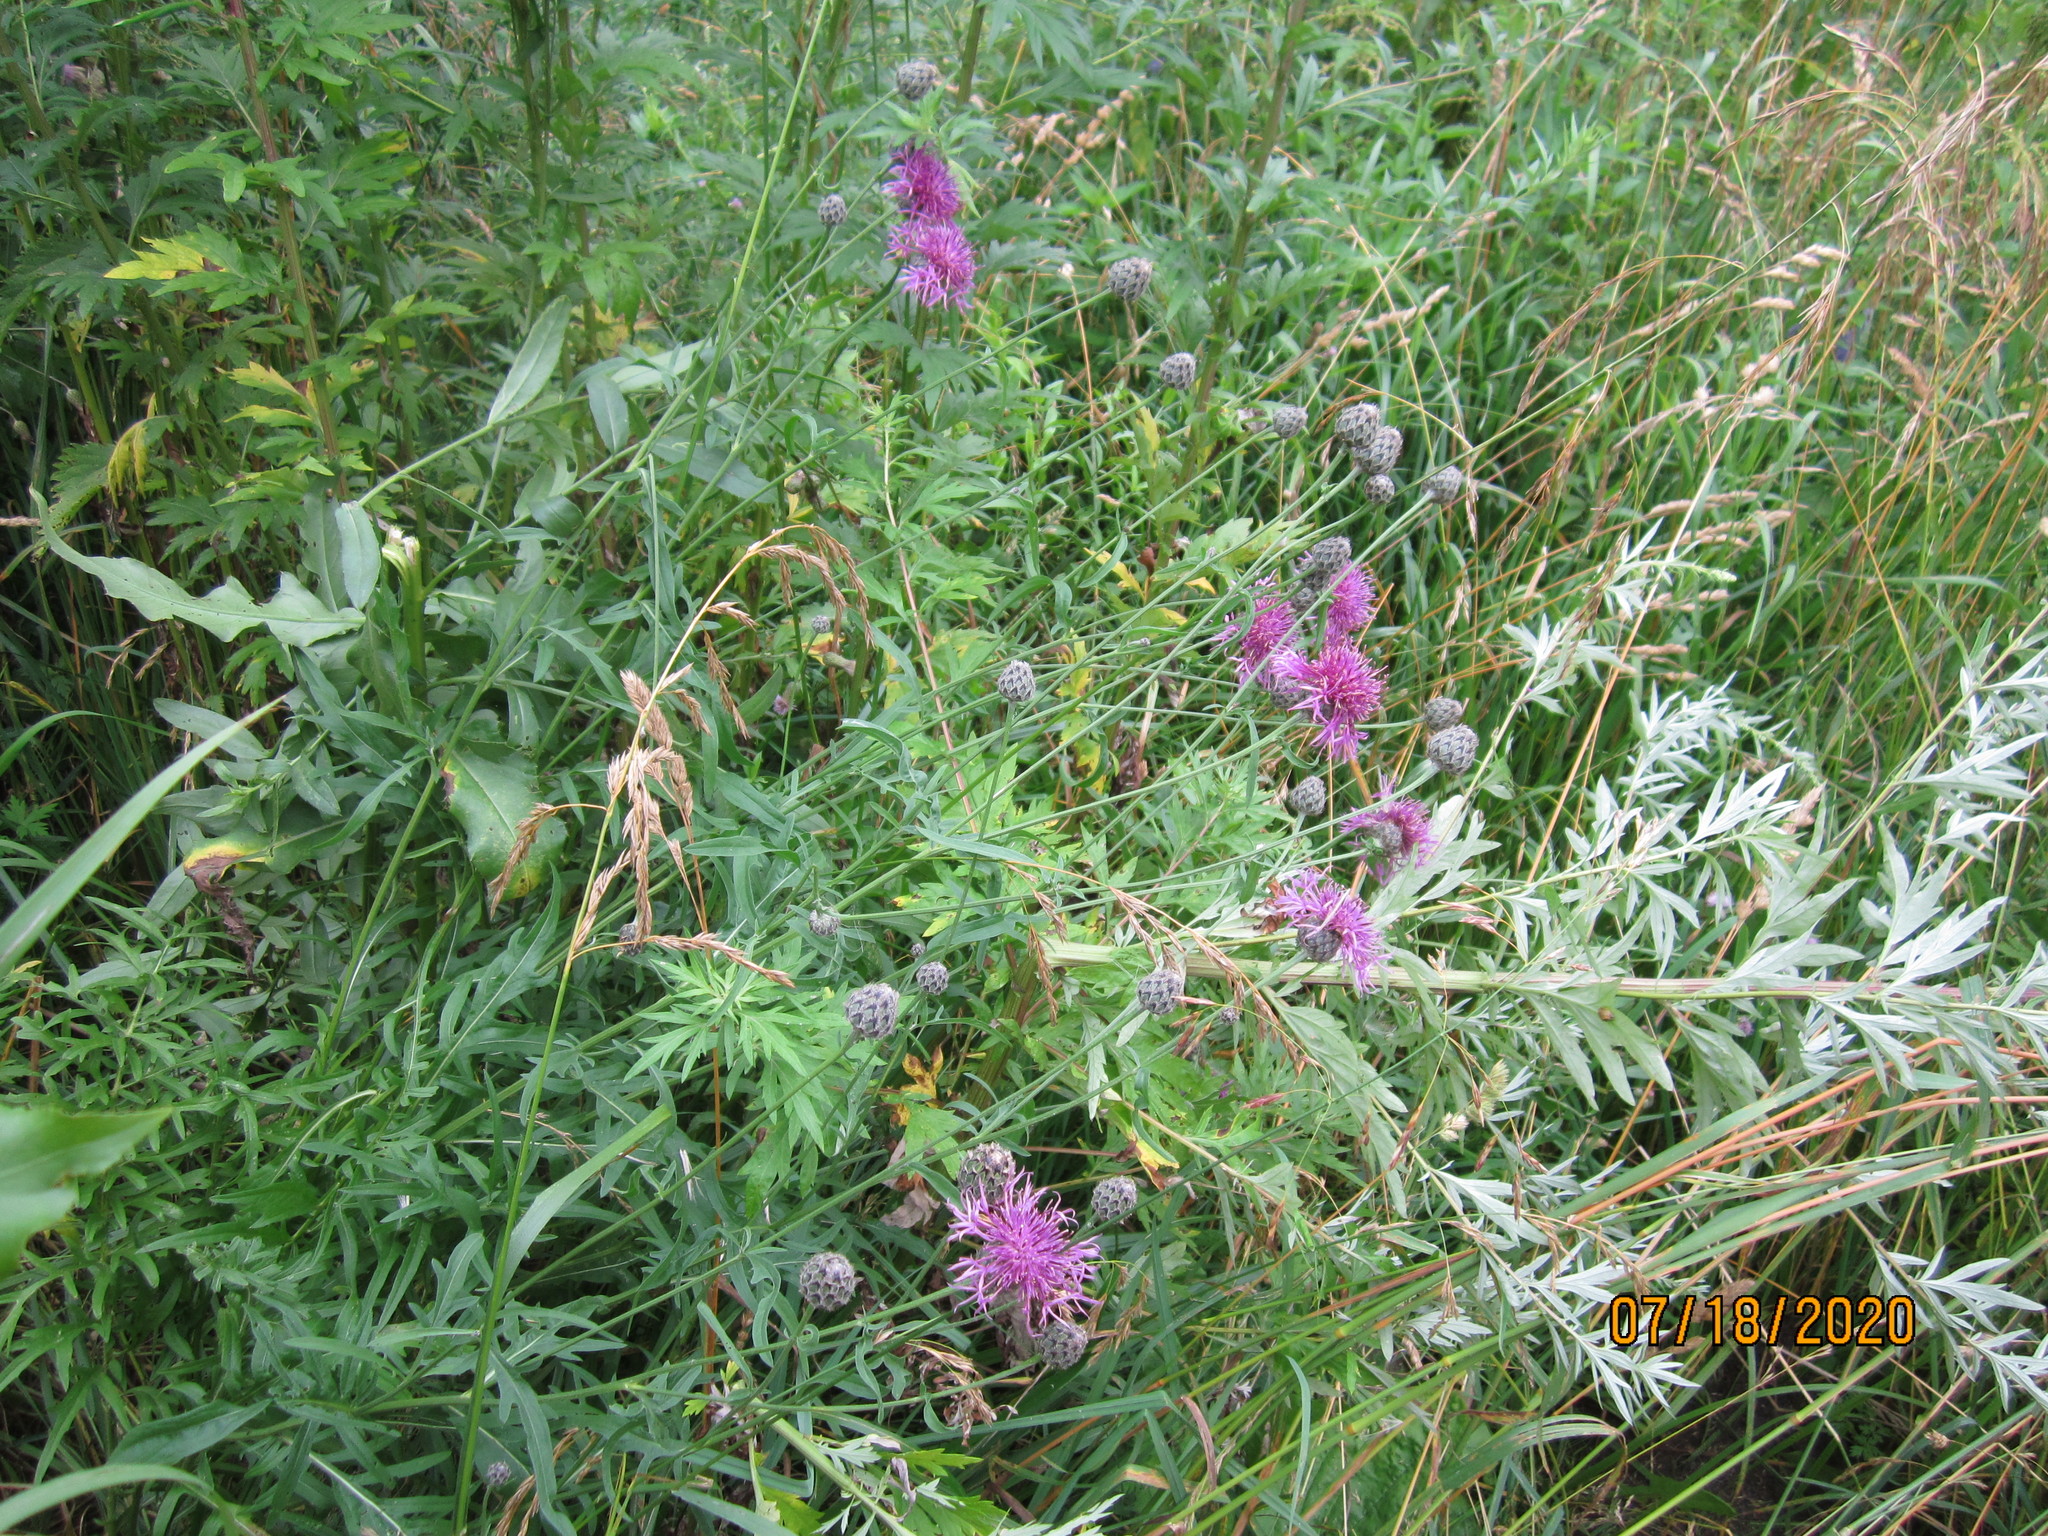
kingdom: Plantae
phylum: Tracheophyta
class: Magnoliopsida
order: Asterales
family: Asteraceae
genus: Centaurea
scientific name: Centaurea scabiosa
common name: Greater knapweed
